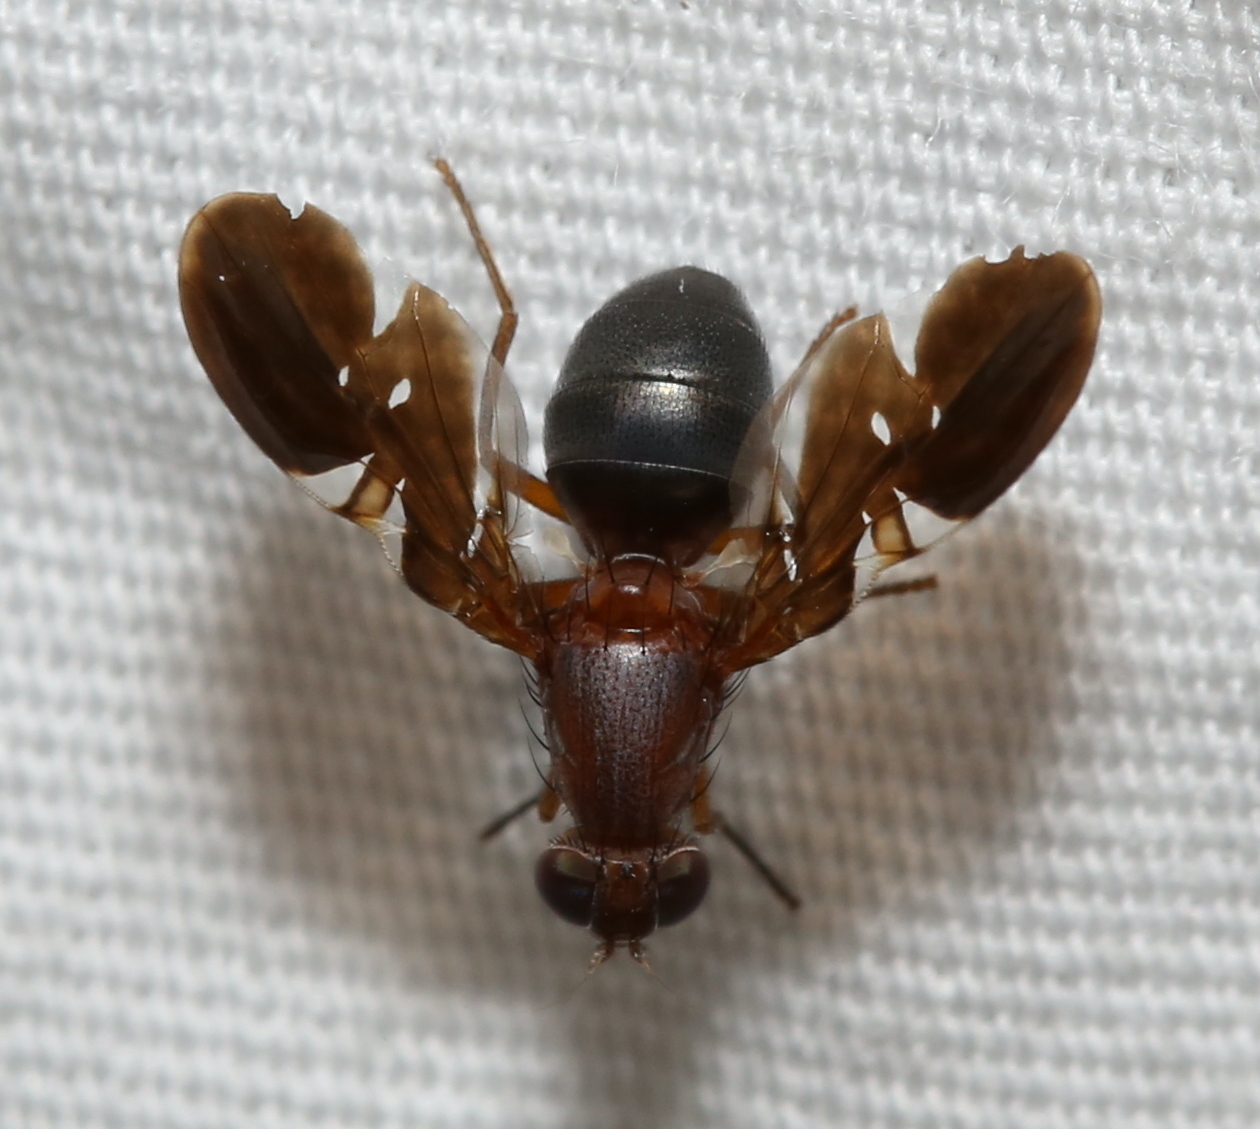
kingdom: Animalia
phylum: Arthropoda
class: Insecta
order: Diptera
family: Ulidiidae
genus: Delphinia
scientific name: Delphinia picta
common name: Common picture-winged fly
